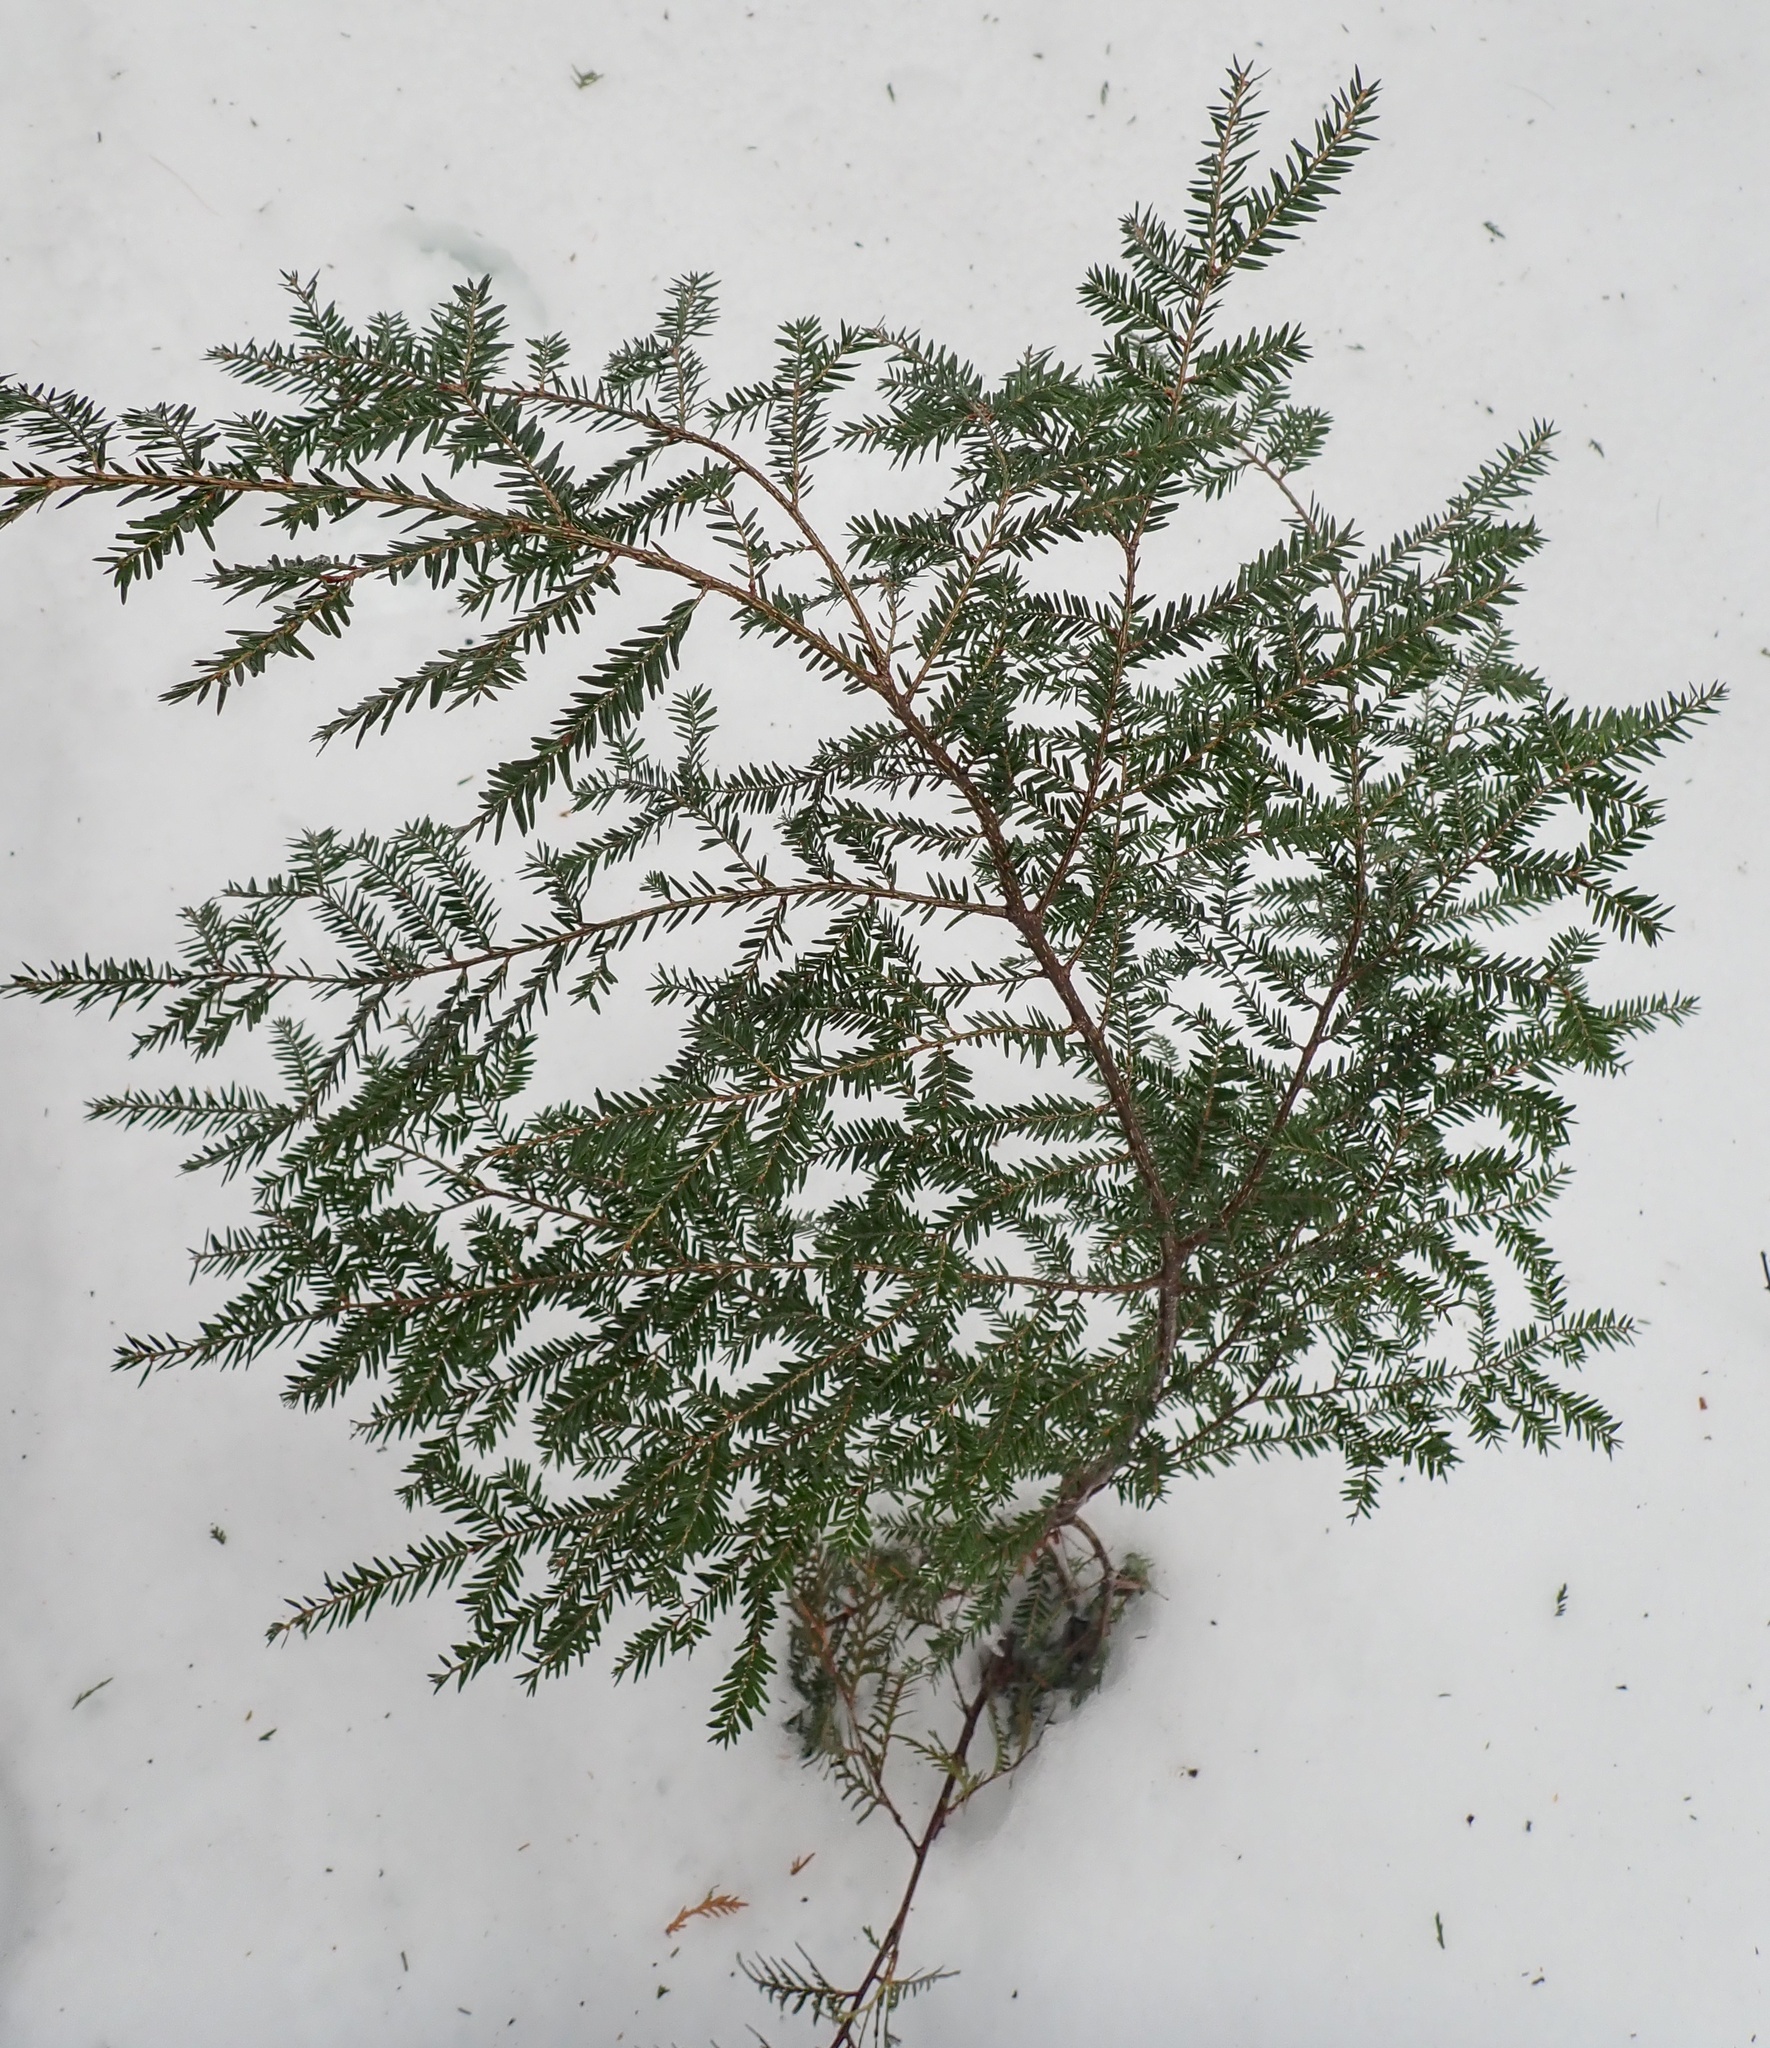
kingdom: Plantae
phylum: Tracheophyta
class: Pinopsida
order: Pinales
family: Pinaceae
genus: Tsuga
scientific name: Tsuga canadensis
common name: Eastern hemlock
